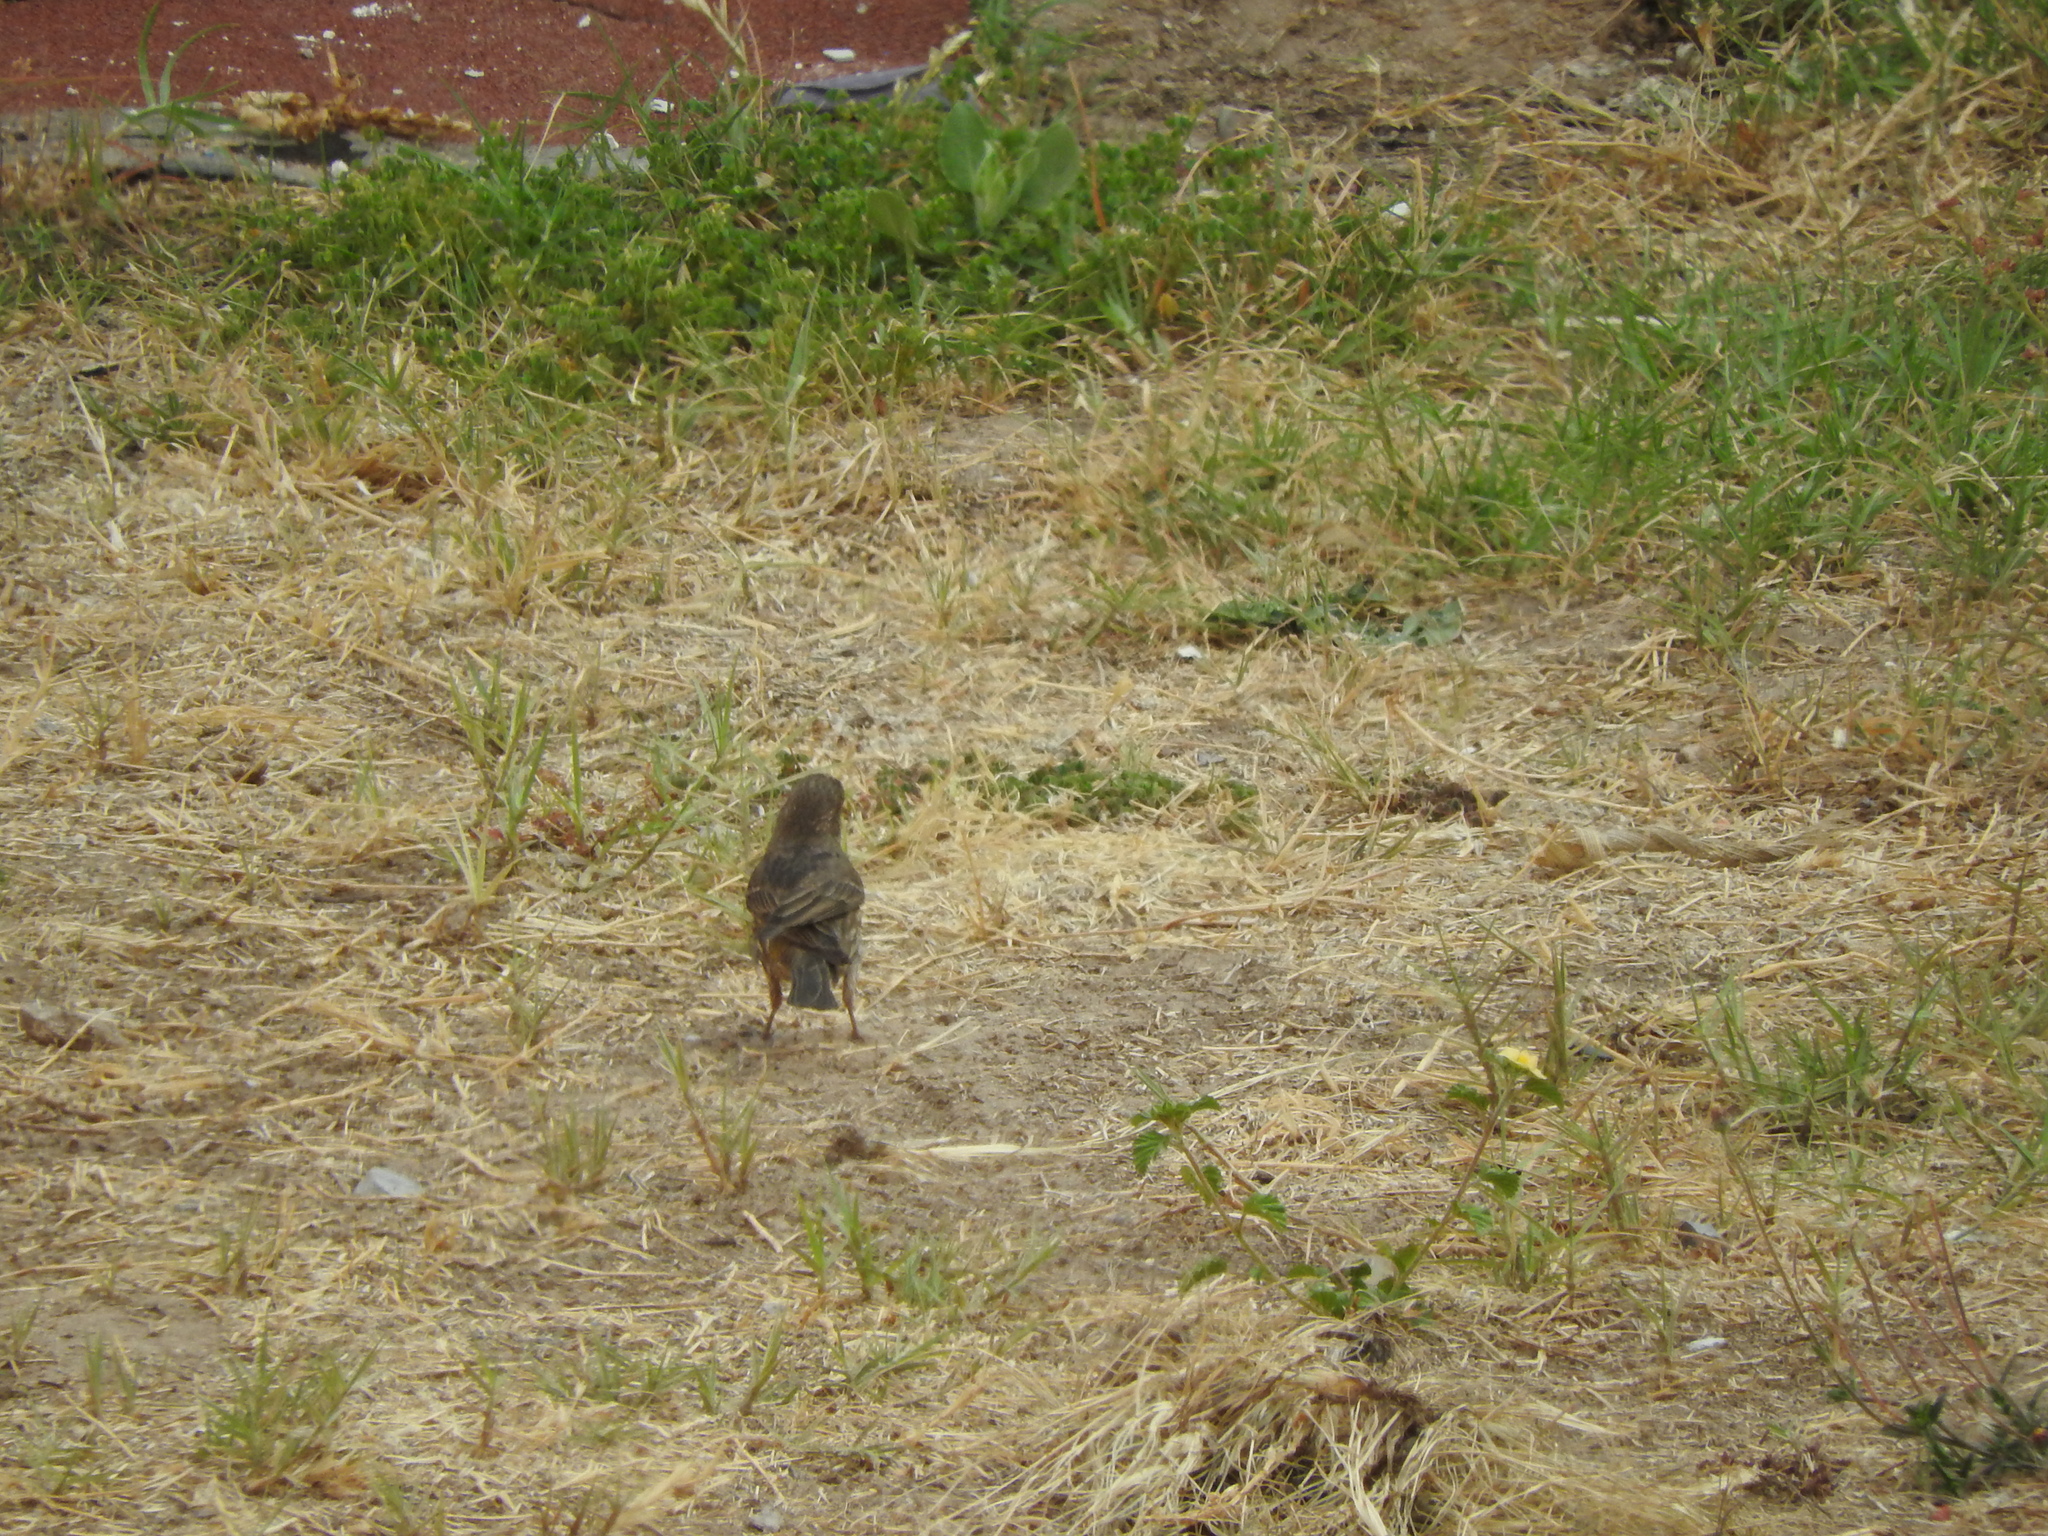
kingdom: Animalia
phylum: Chordata
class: Aves
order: Passeriformes
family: Fringillidae
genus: Haemorhous
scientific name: Haemorhous mexicanus
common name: House finch
